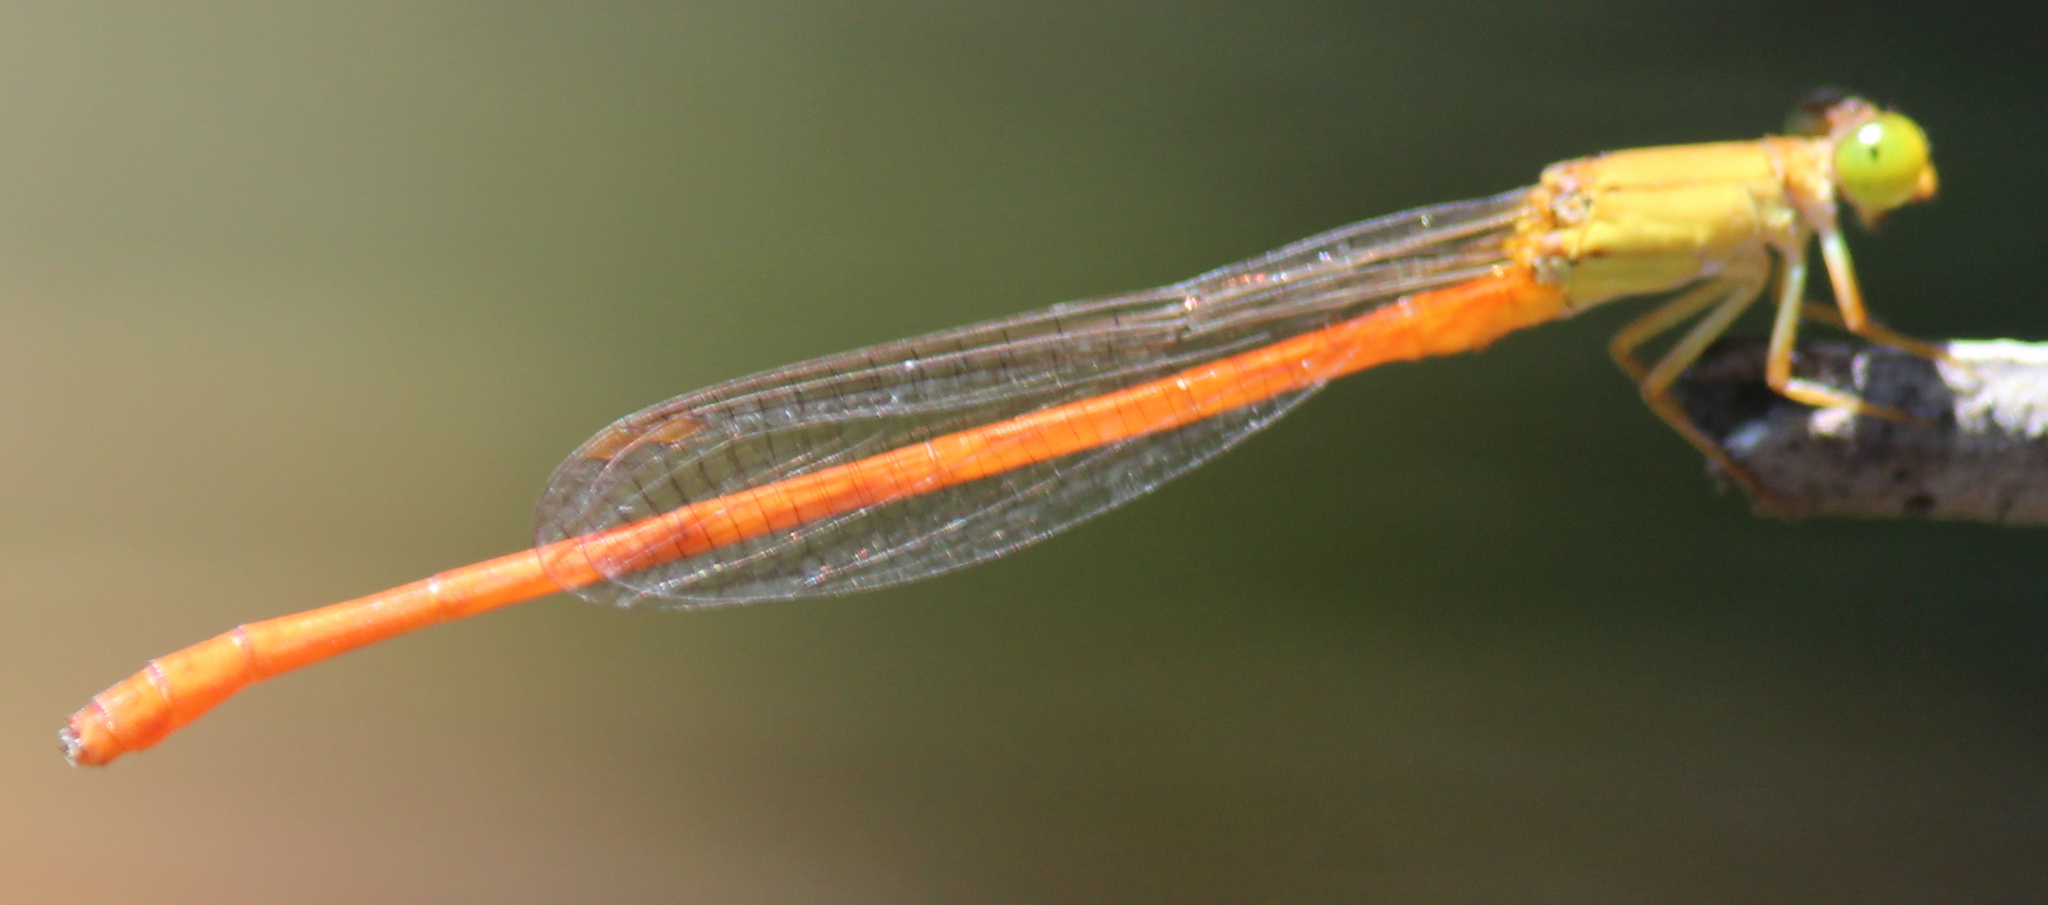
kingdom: Animalia
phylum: Arthropoda
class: Insecta
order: Odonata
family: Coenagrionidae
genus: Ceriagrion
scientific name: Ceriagrion glabrum
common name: Common pond damsel
